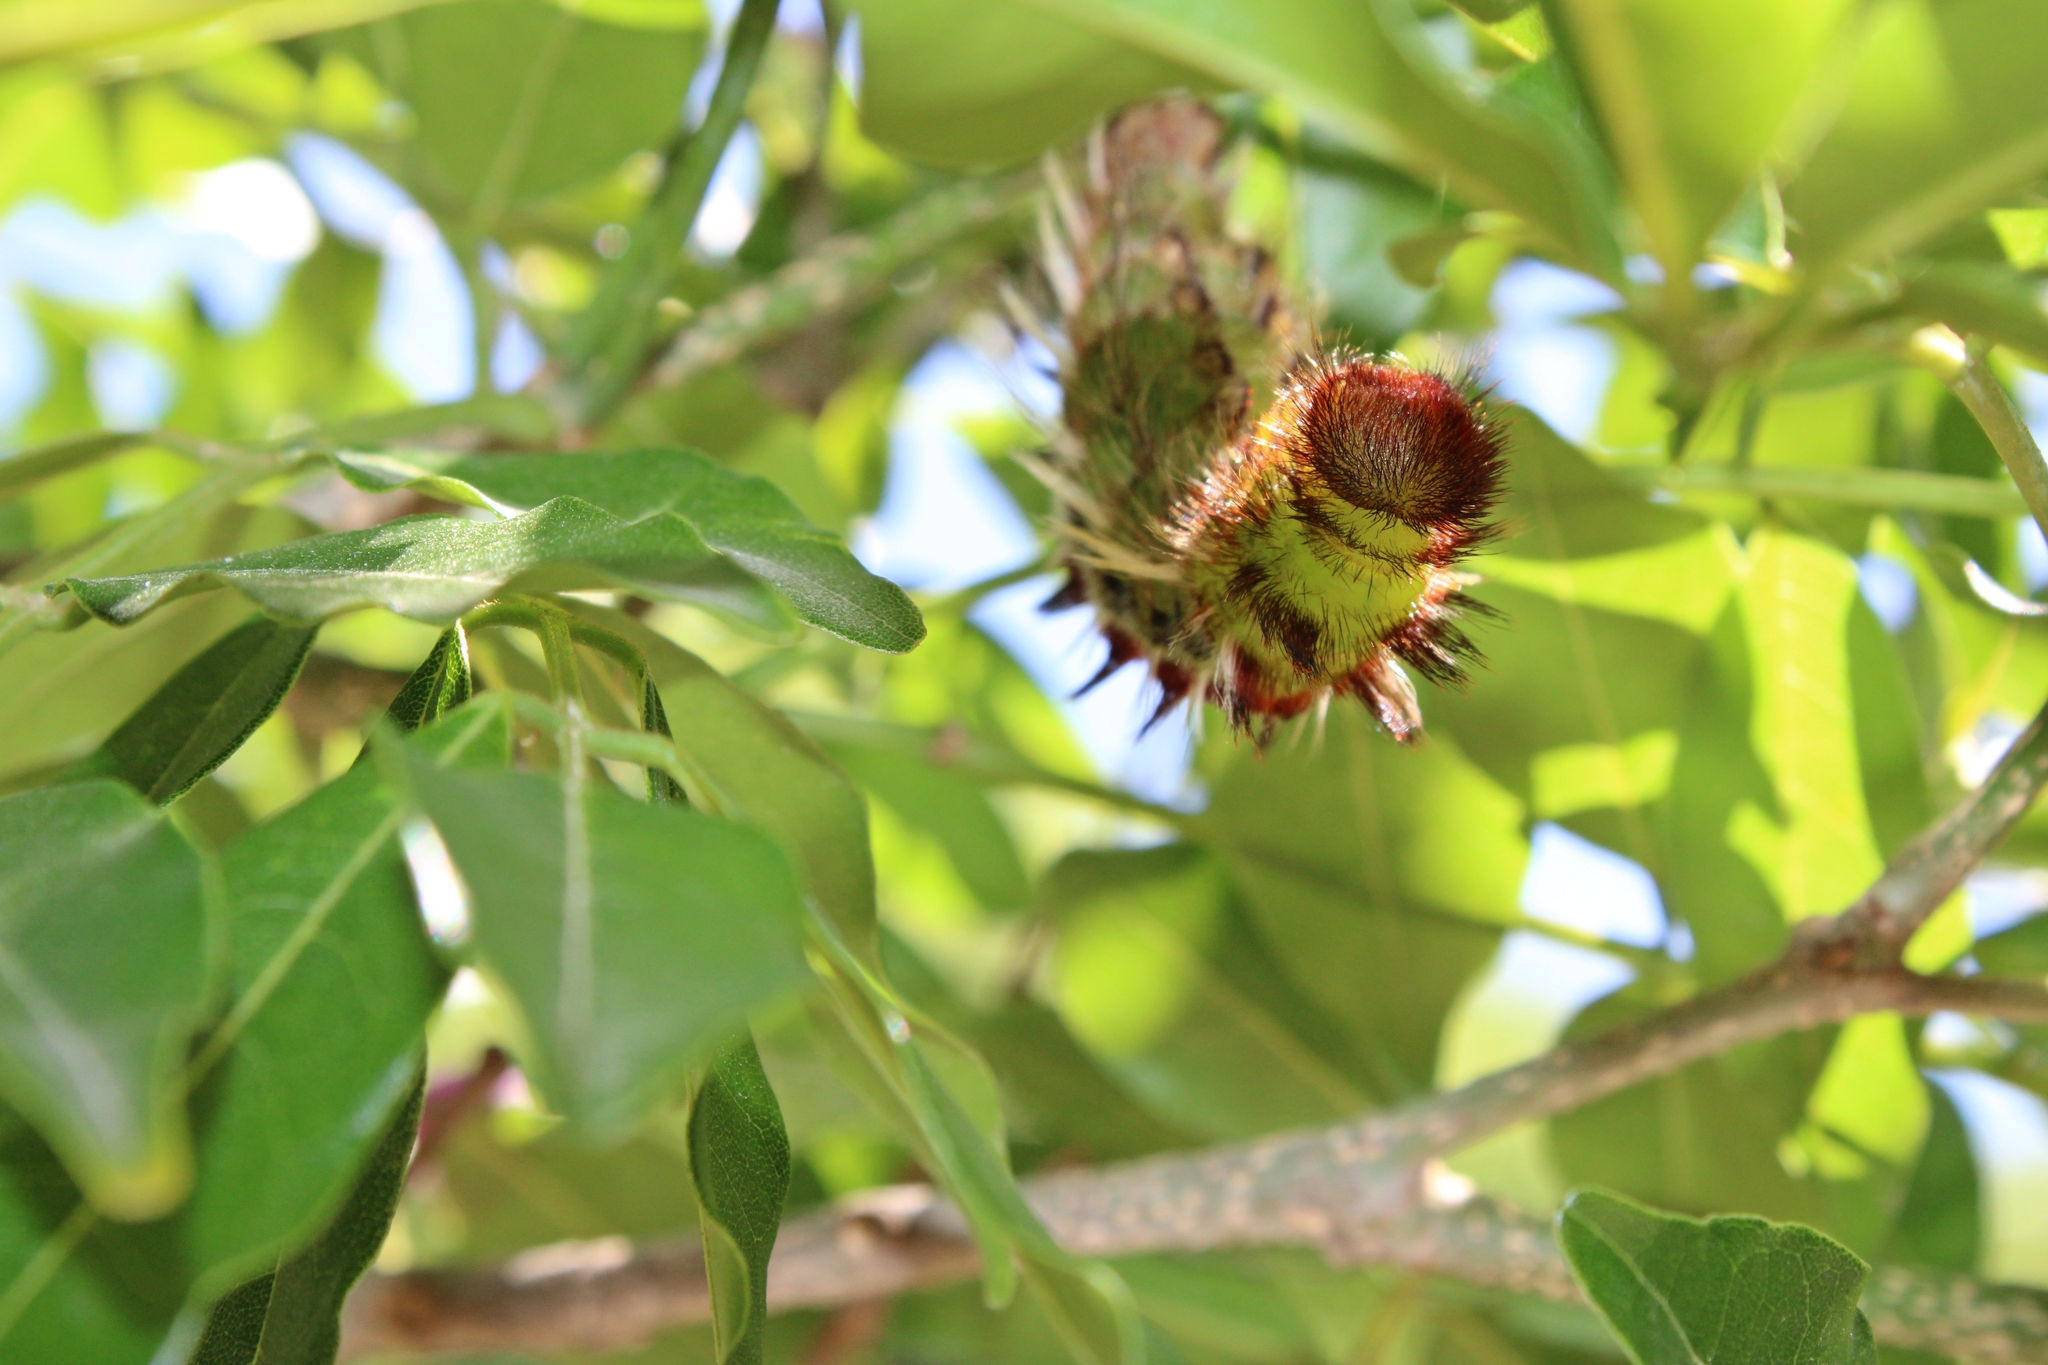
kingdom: Animalia
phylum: Arthropoda
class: Insecta
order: Lepidoptera
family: Nymphalidae
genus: Morpho
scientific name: Morpho epistrophus
